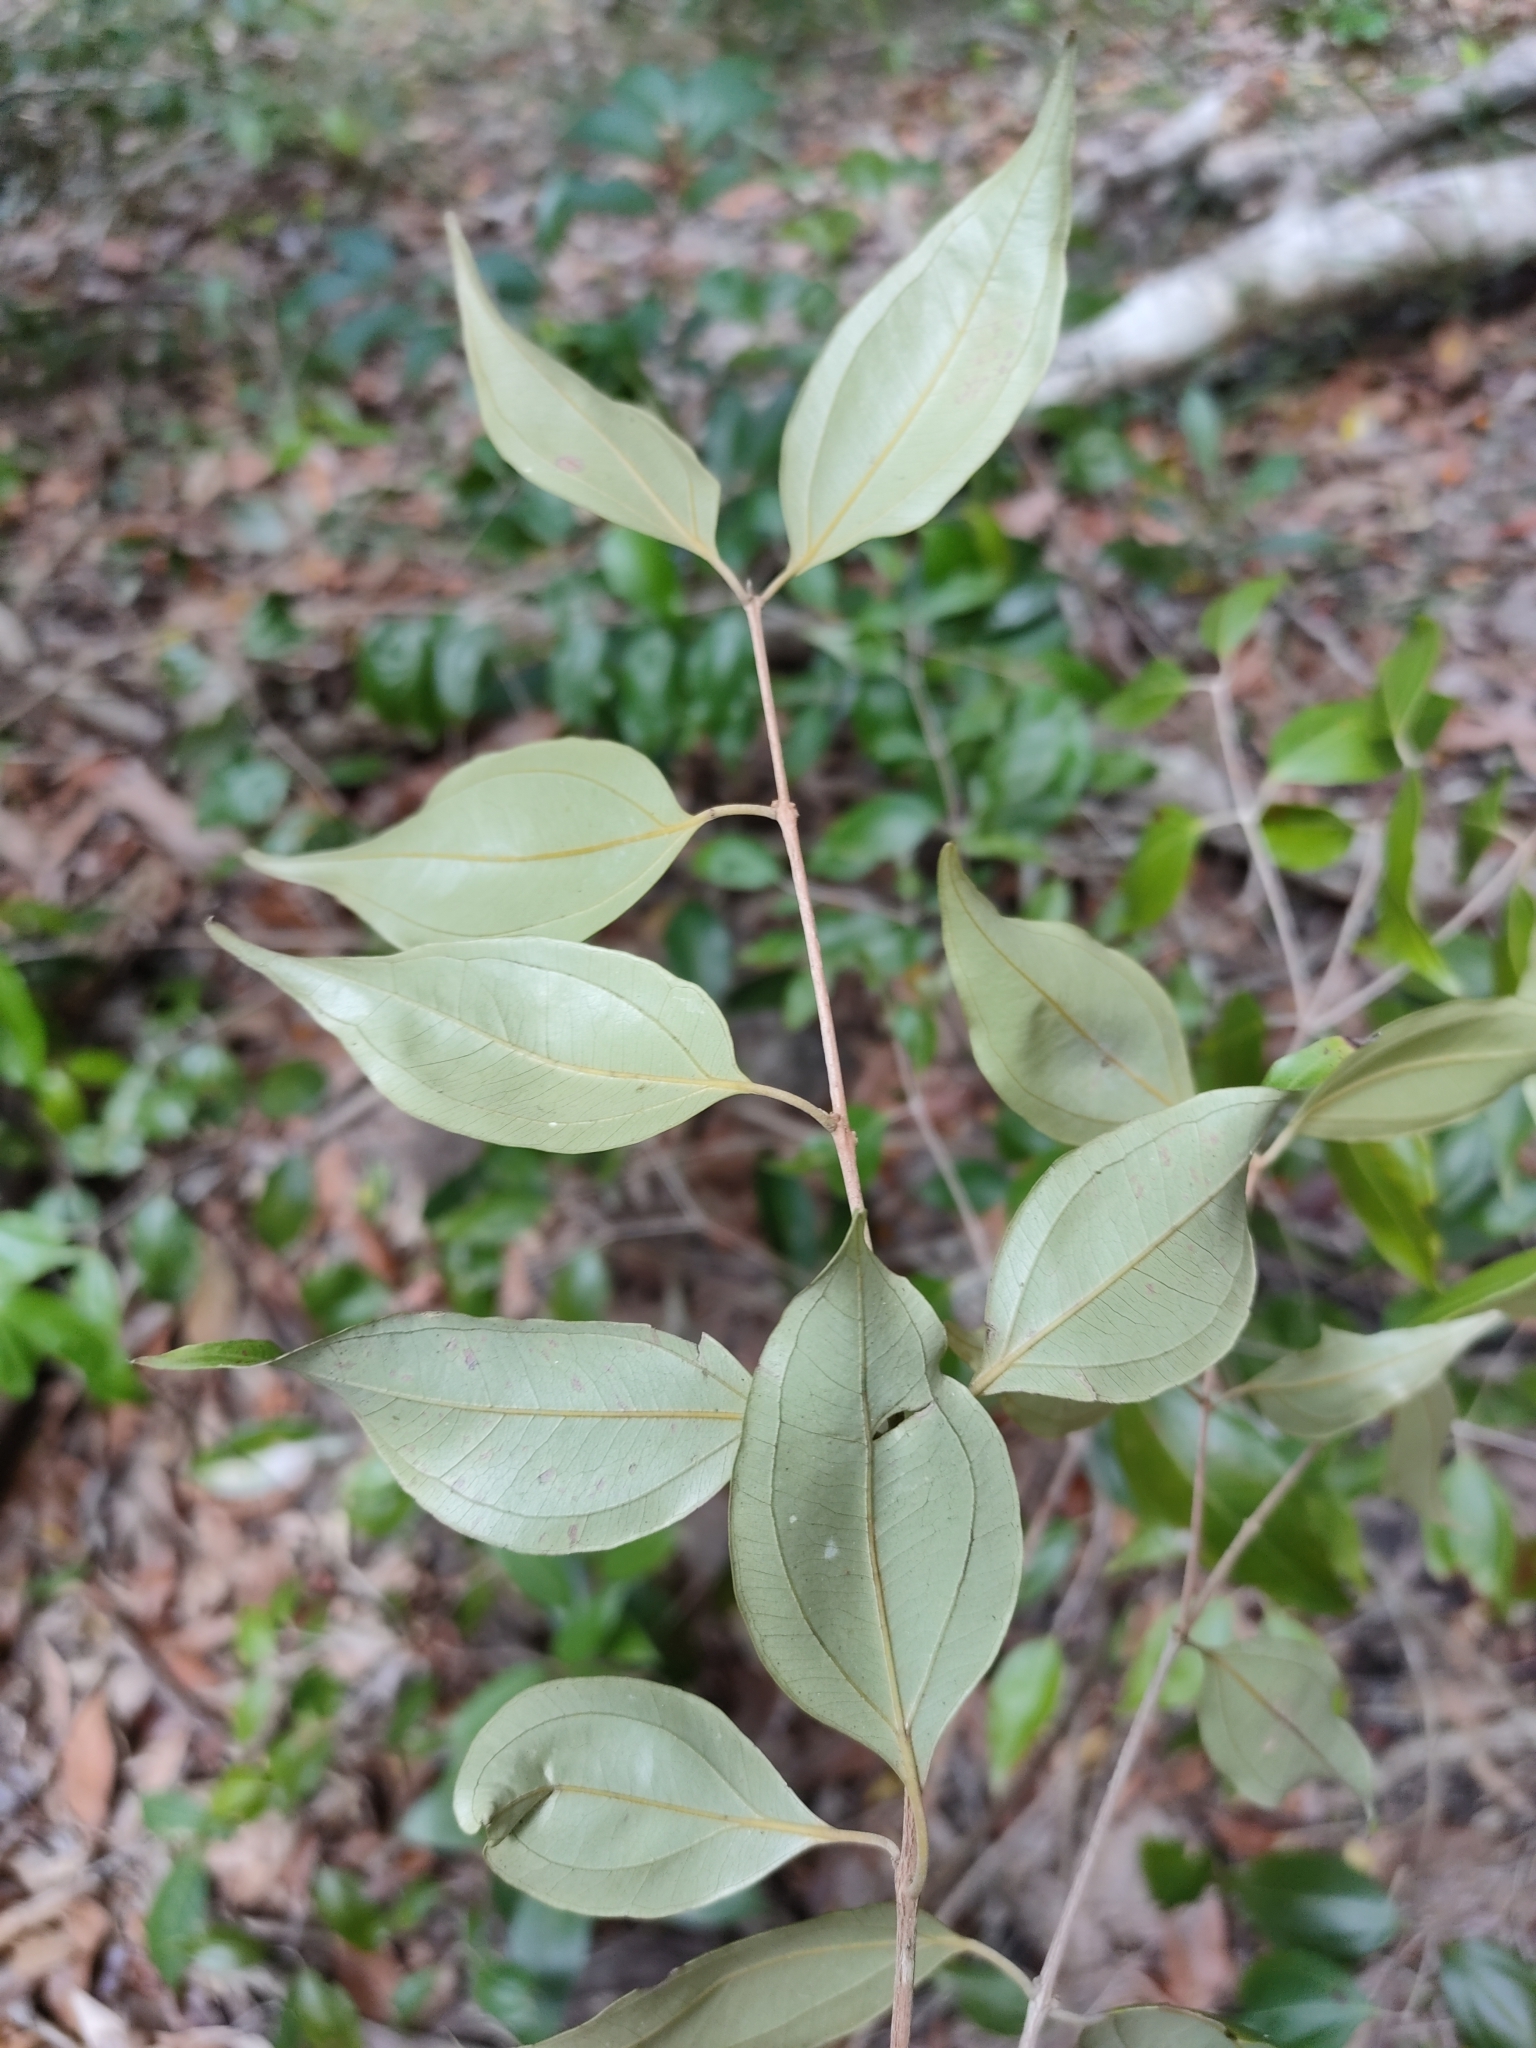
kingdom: Plantae
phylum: Tracheophyta
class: Magnoliopsida
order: Myrtales
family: Myrtaceae
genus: Rhodamnia
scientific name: Rhodamnia acuminata
